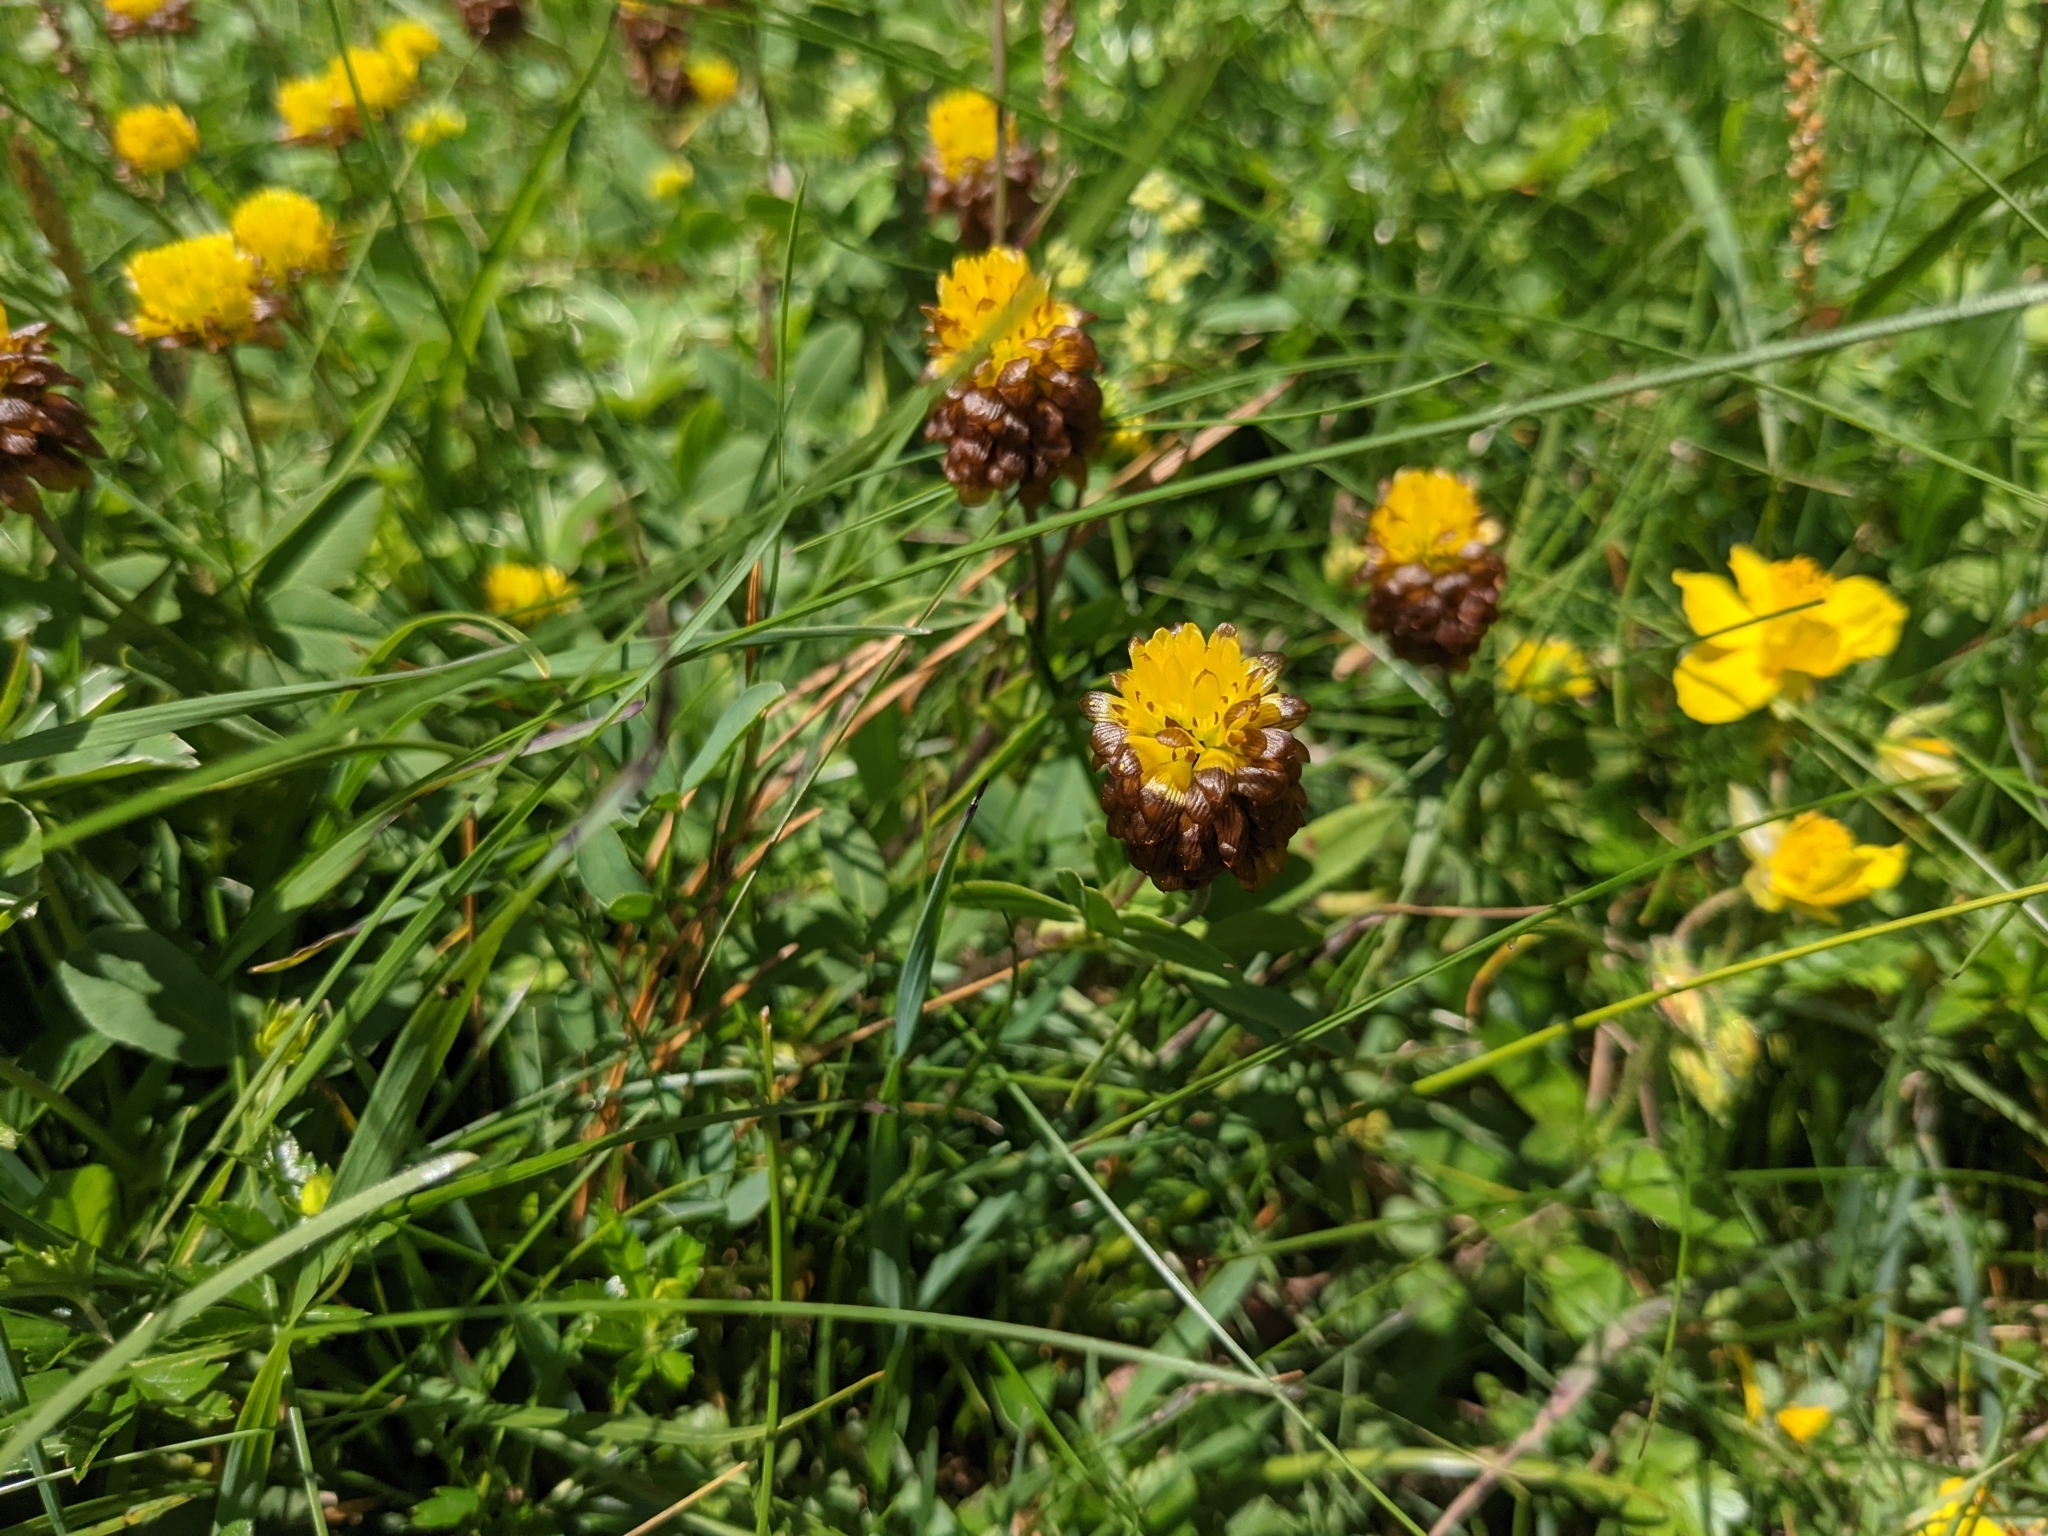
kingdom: Plantae
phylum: Tracheophyta
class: Magnoliopsida
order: Fabales
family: Fabaceae
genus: Trifolium
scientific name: Trifolium badium
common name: Brown clover
